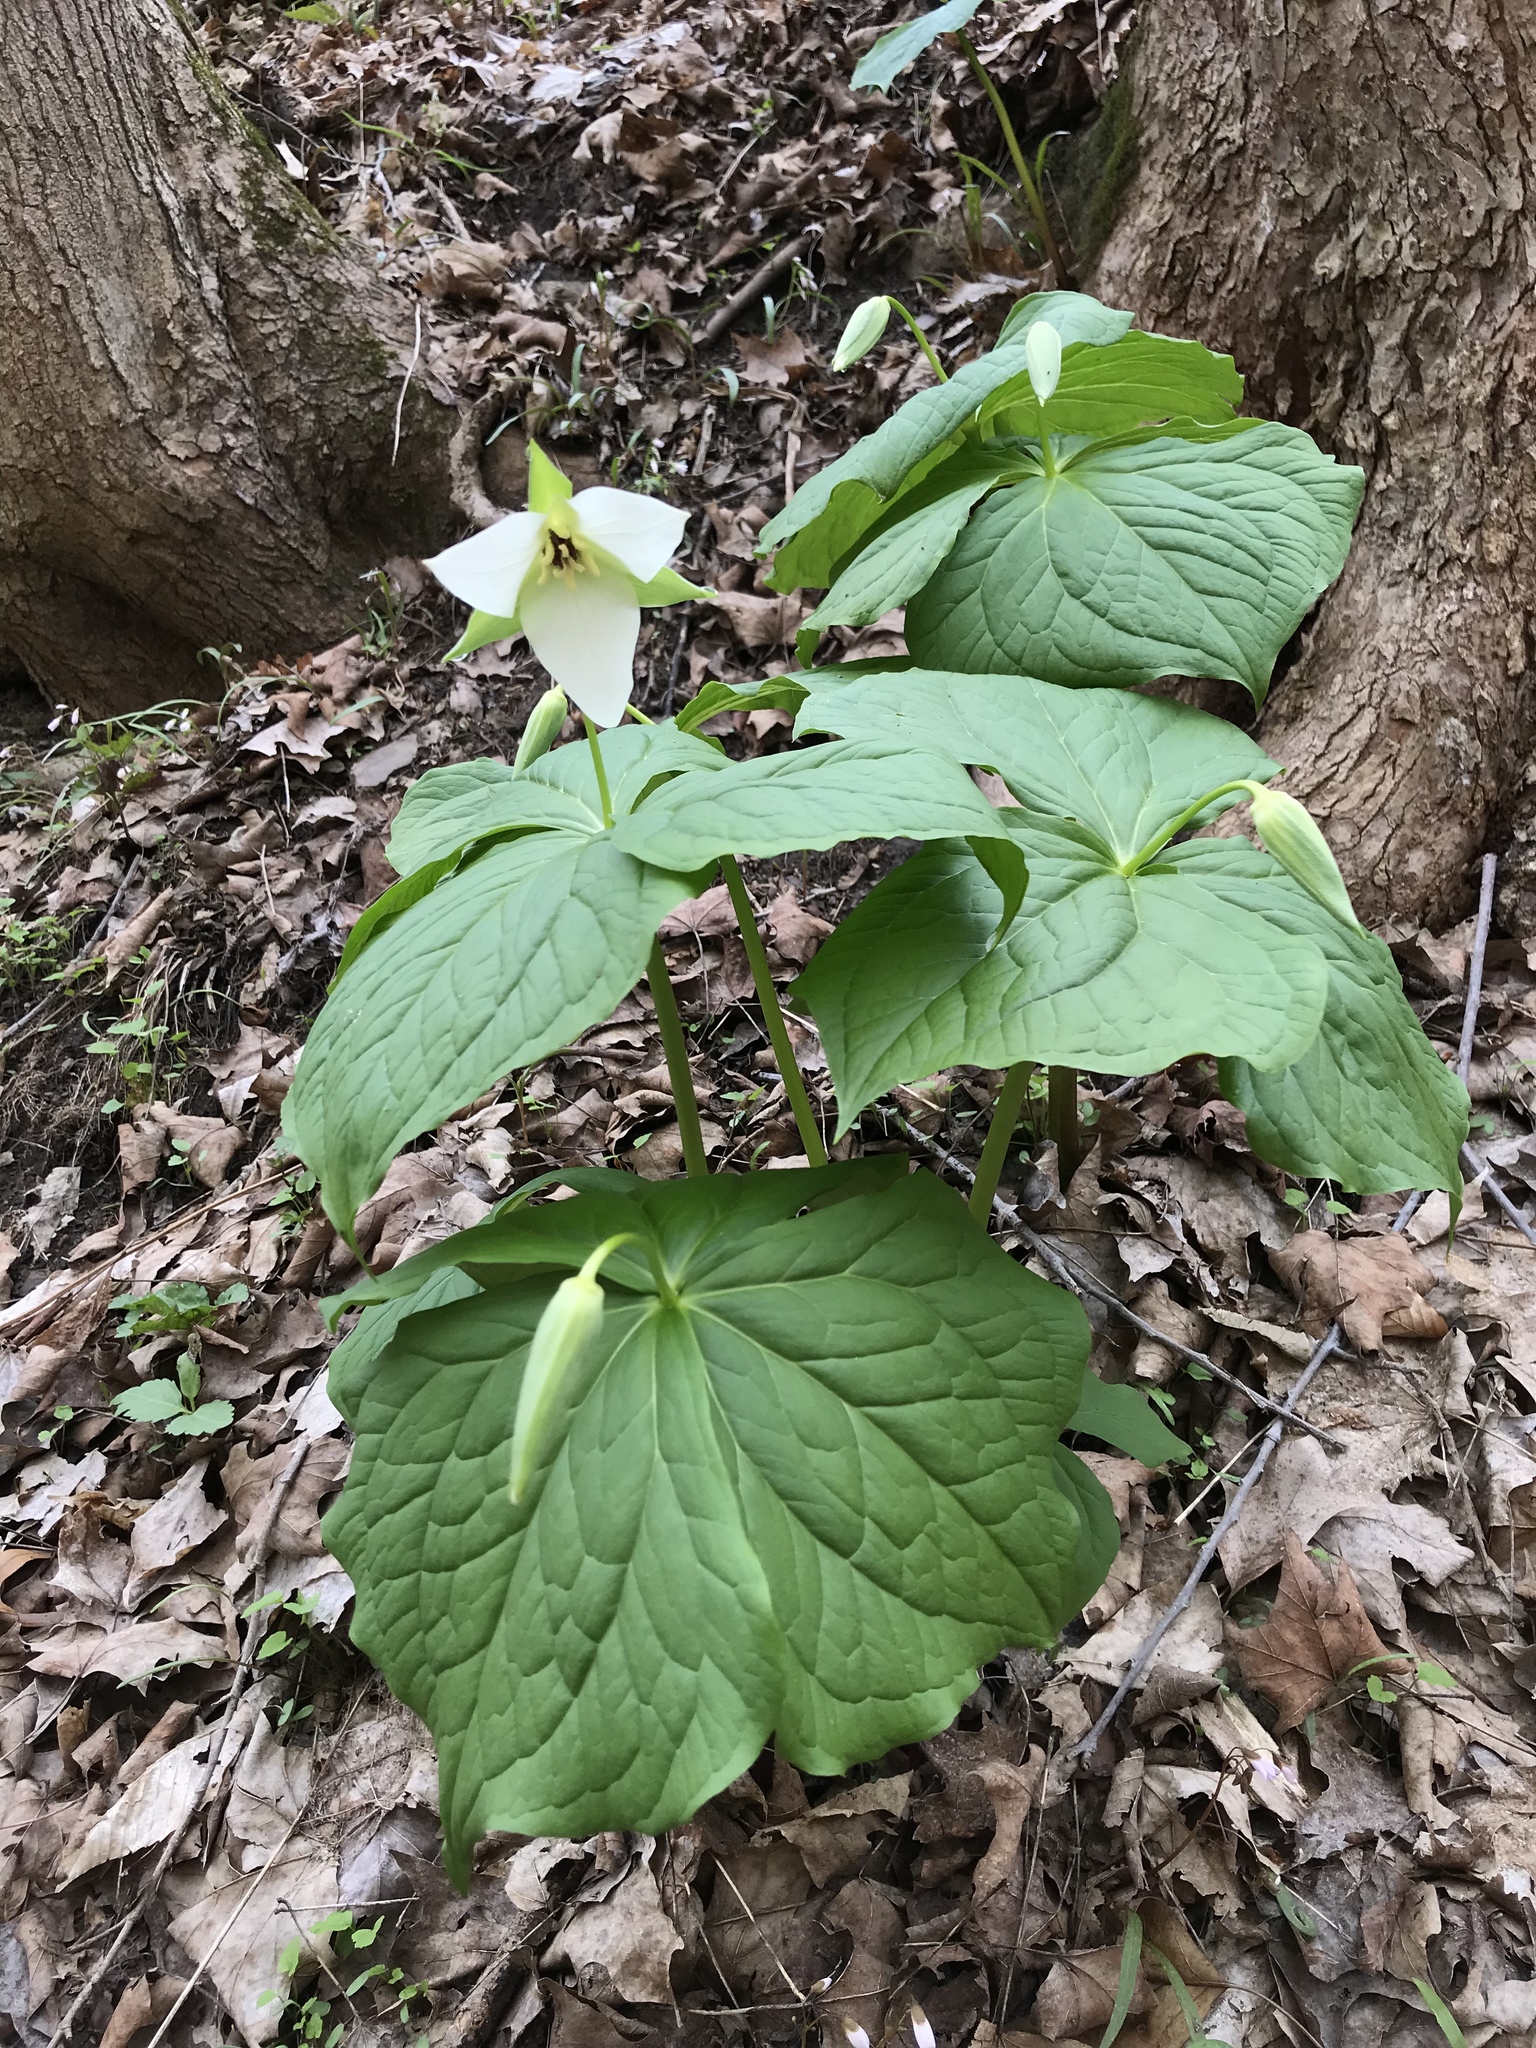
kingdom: Plantae
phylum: Tracheophyta
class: Liliopsida
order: Liliales
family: Melanthiaceae
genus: Trillium
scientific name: Trillium erectum
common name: Purple trillium
